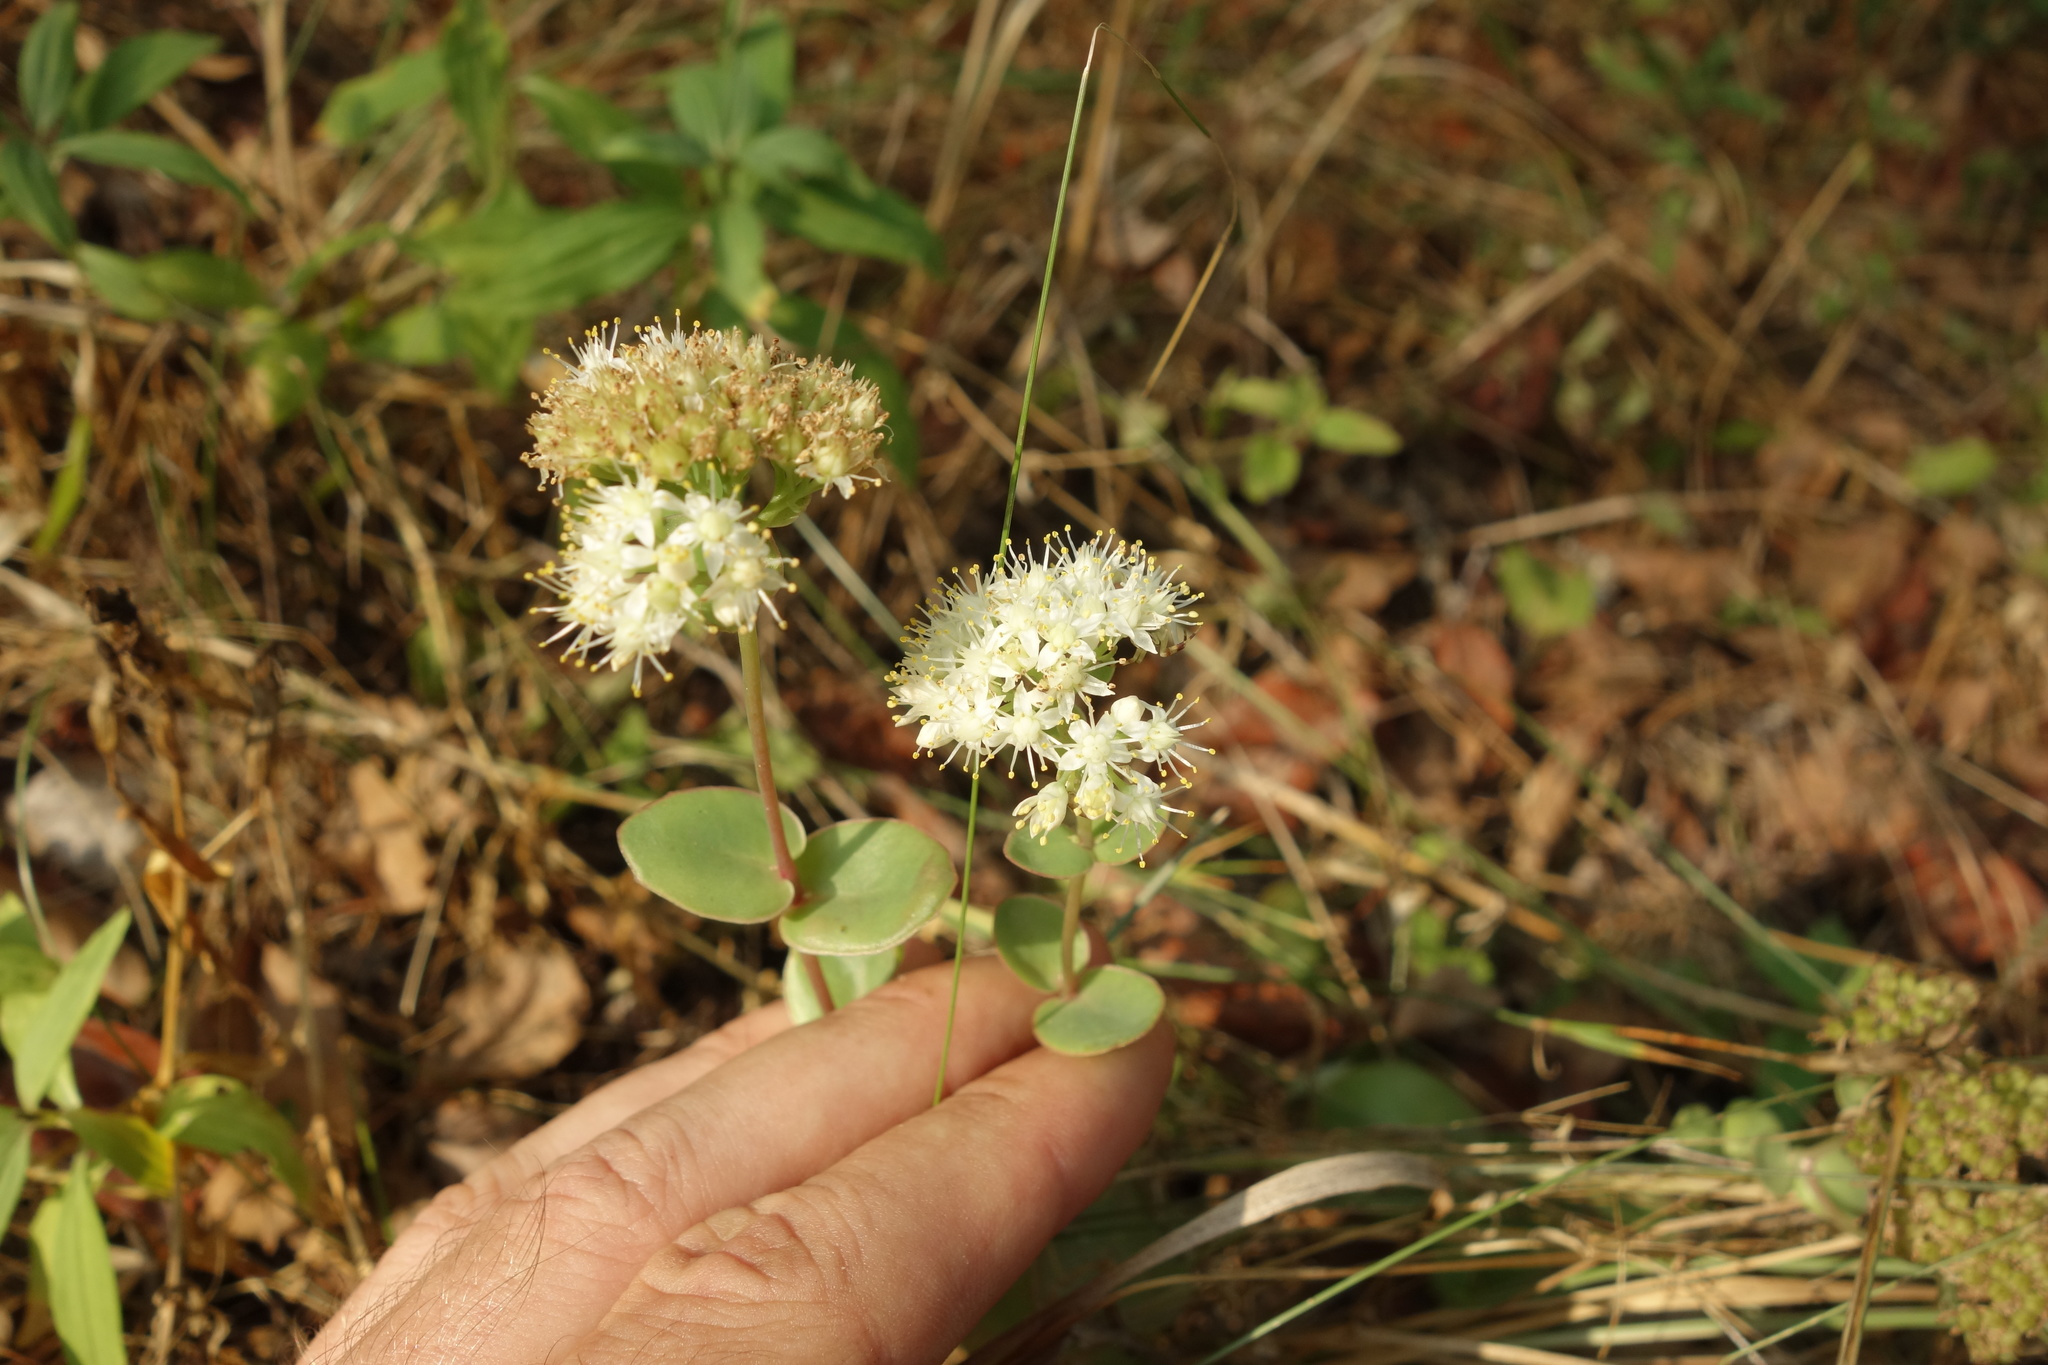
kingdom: Plantae
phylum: Tracheophyta
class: Magnoliopsida
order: Saxifragales
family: Crassulaceae
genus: Hylotelephium
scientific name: Hylotelephium maximum
